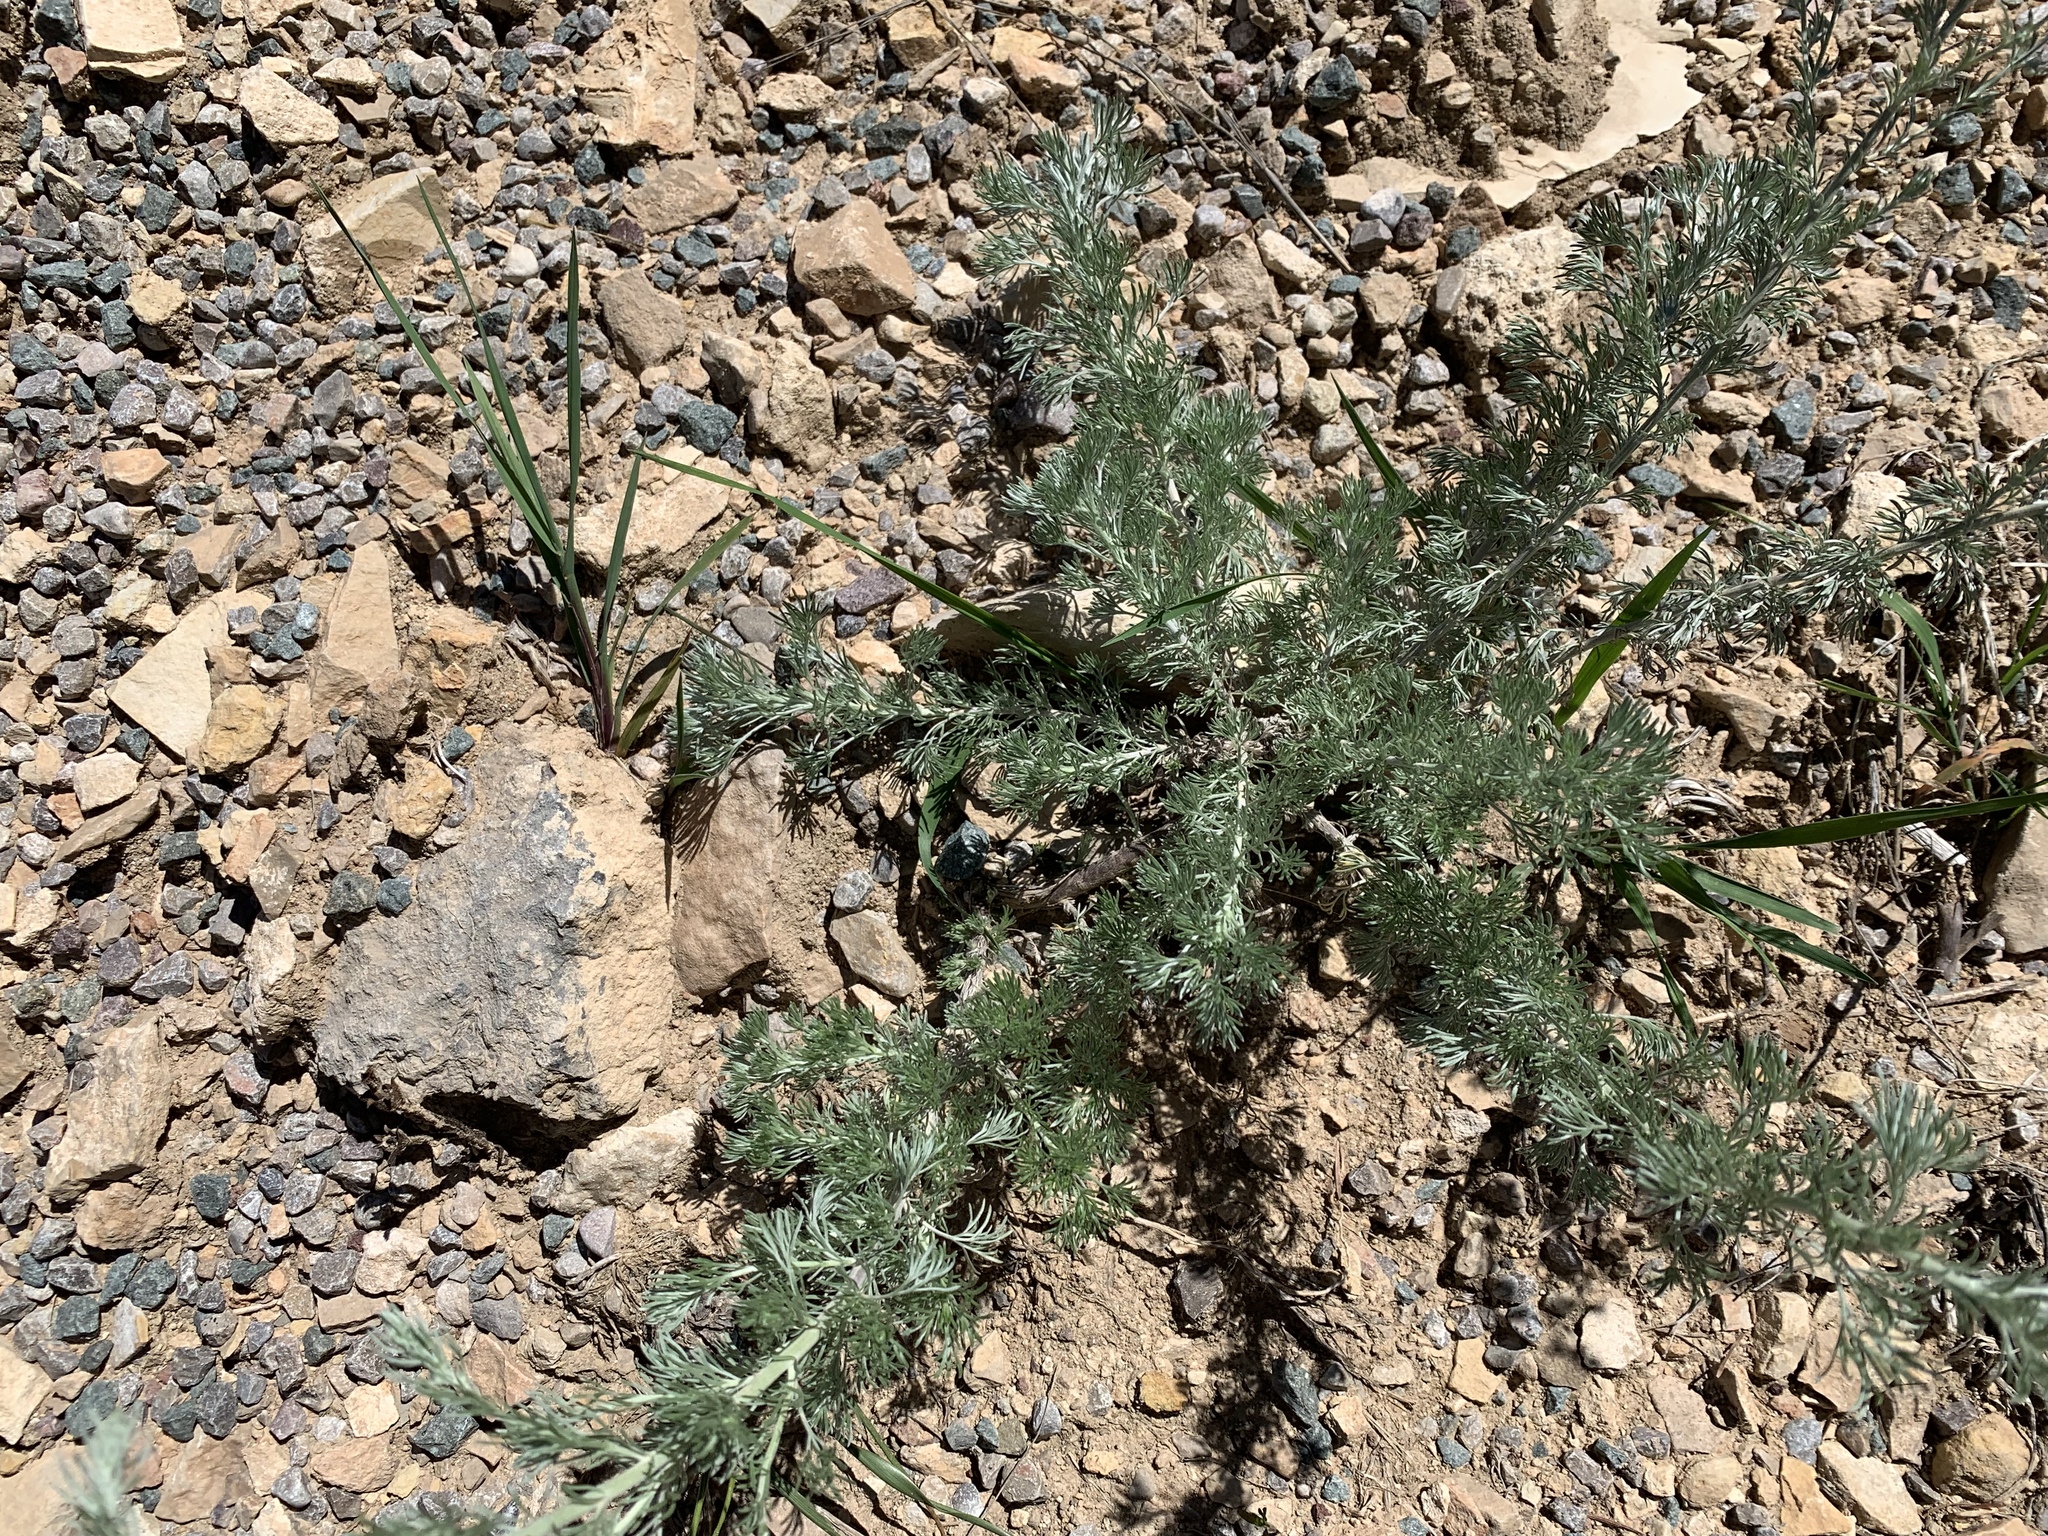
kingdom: Plantae
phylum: Tracheophyta
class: Magnoliopsida
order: Asterales
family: Asteraceae
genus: Artemisia
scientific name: Artemisia frigida
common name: Prairie sagewort
